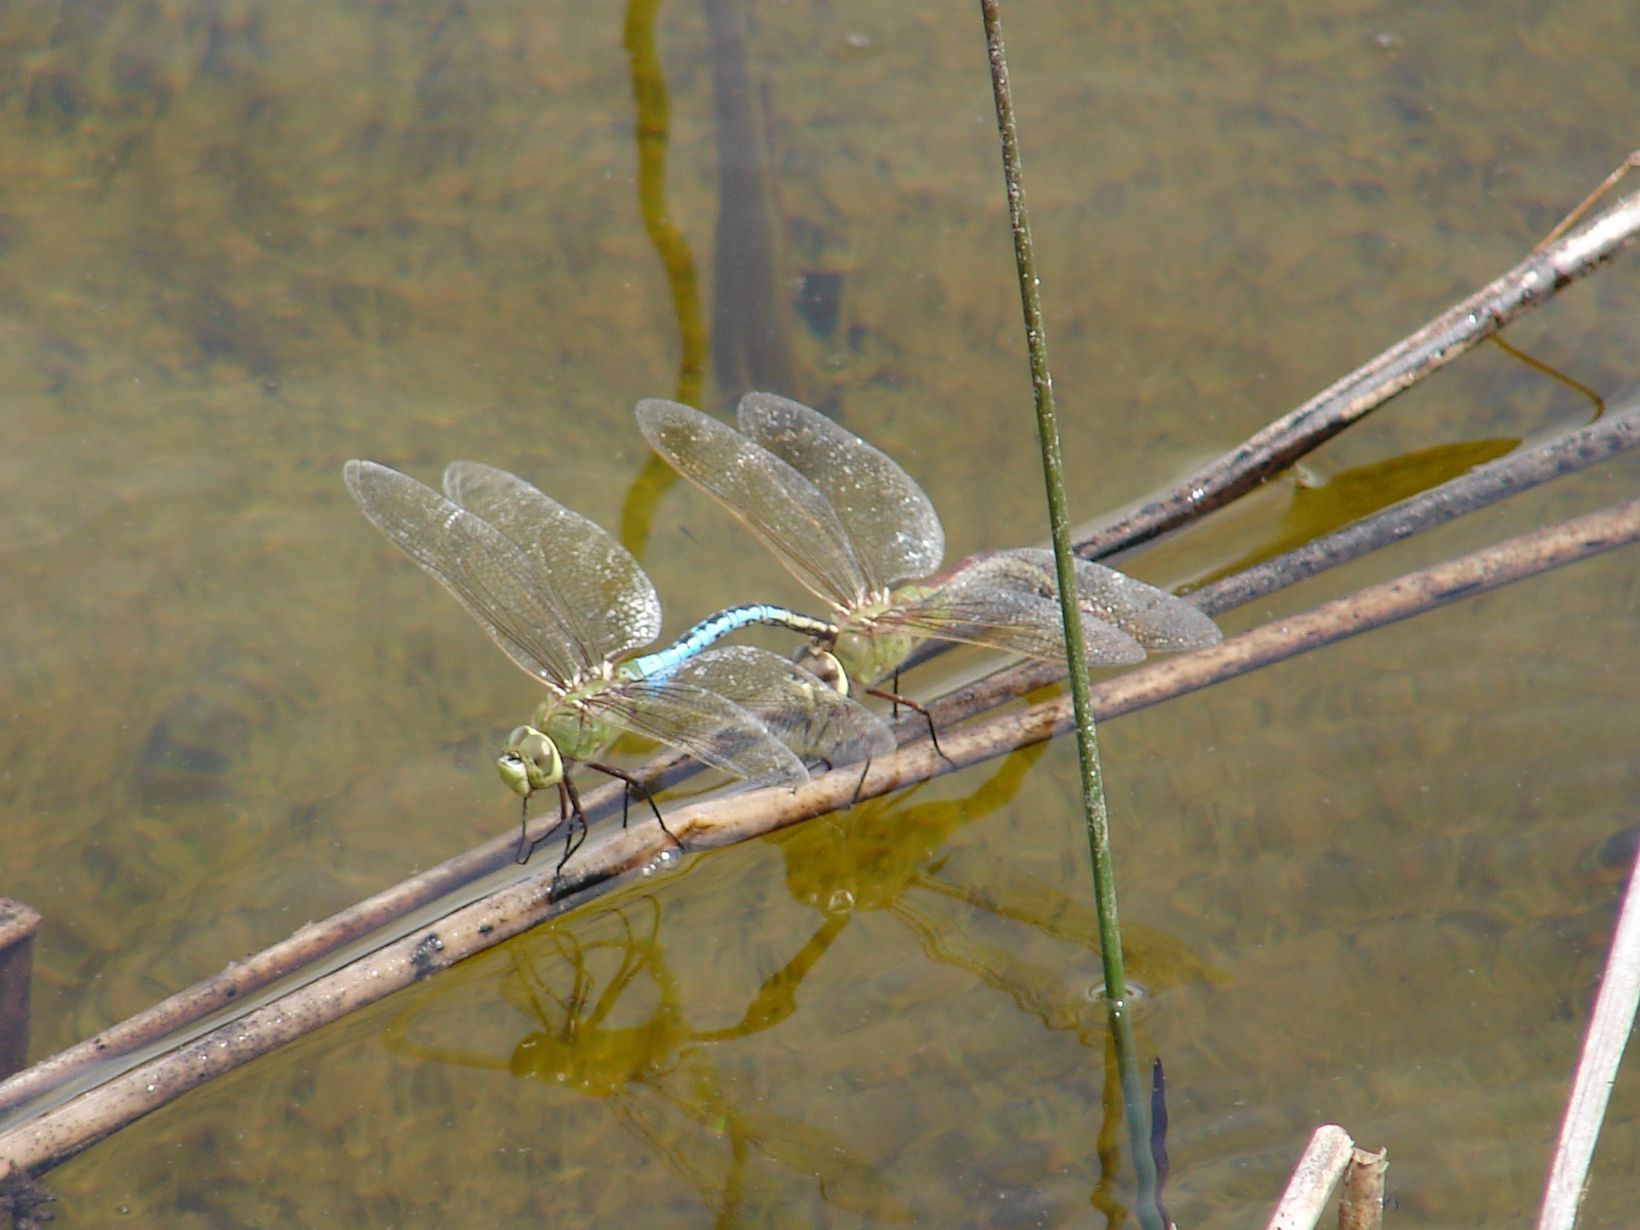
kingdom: Animalia
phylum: Arthropoda
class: Insecta
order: Odonata
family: Aeshnidae
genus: Anax
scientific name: Anax junius
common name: Common green darner
